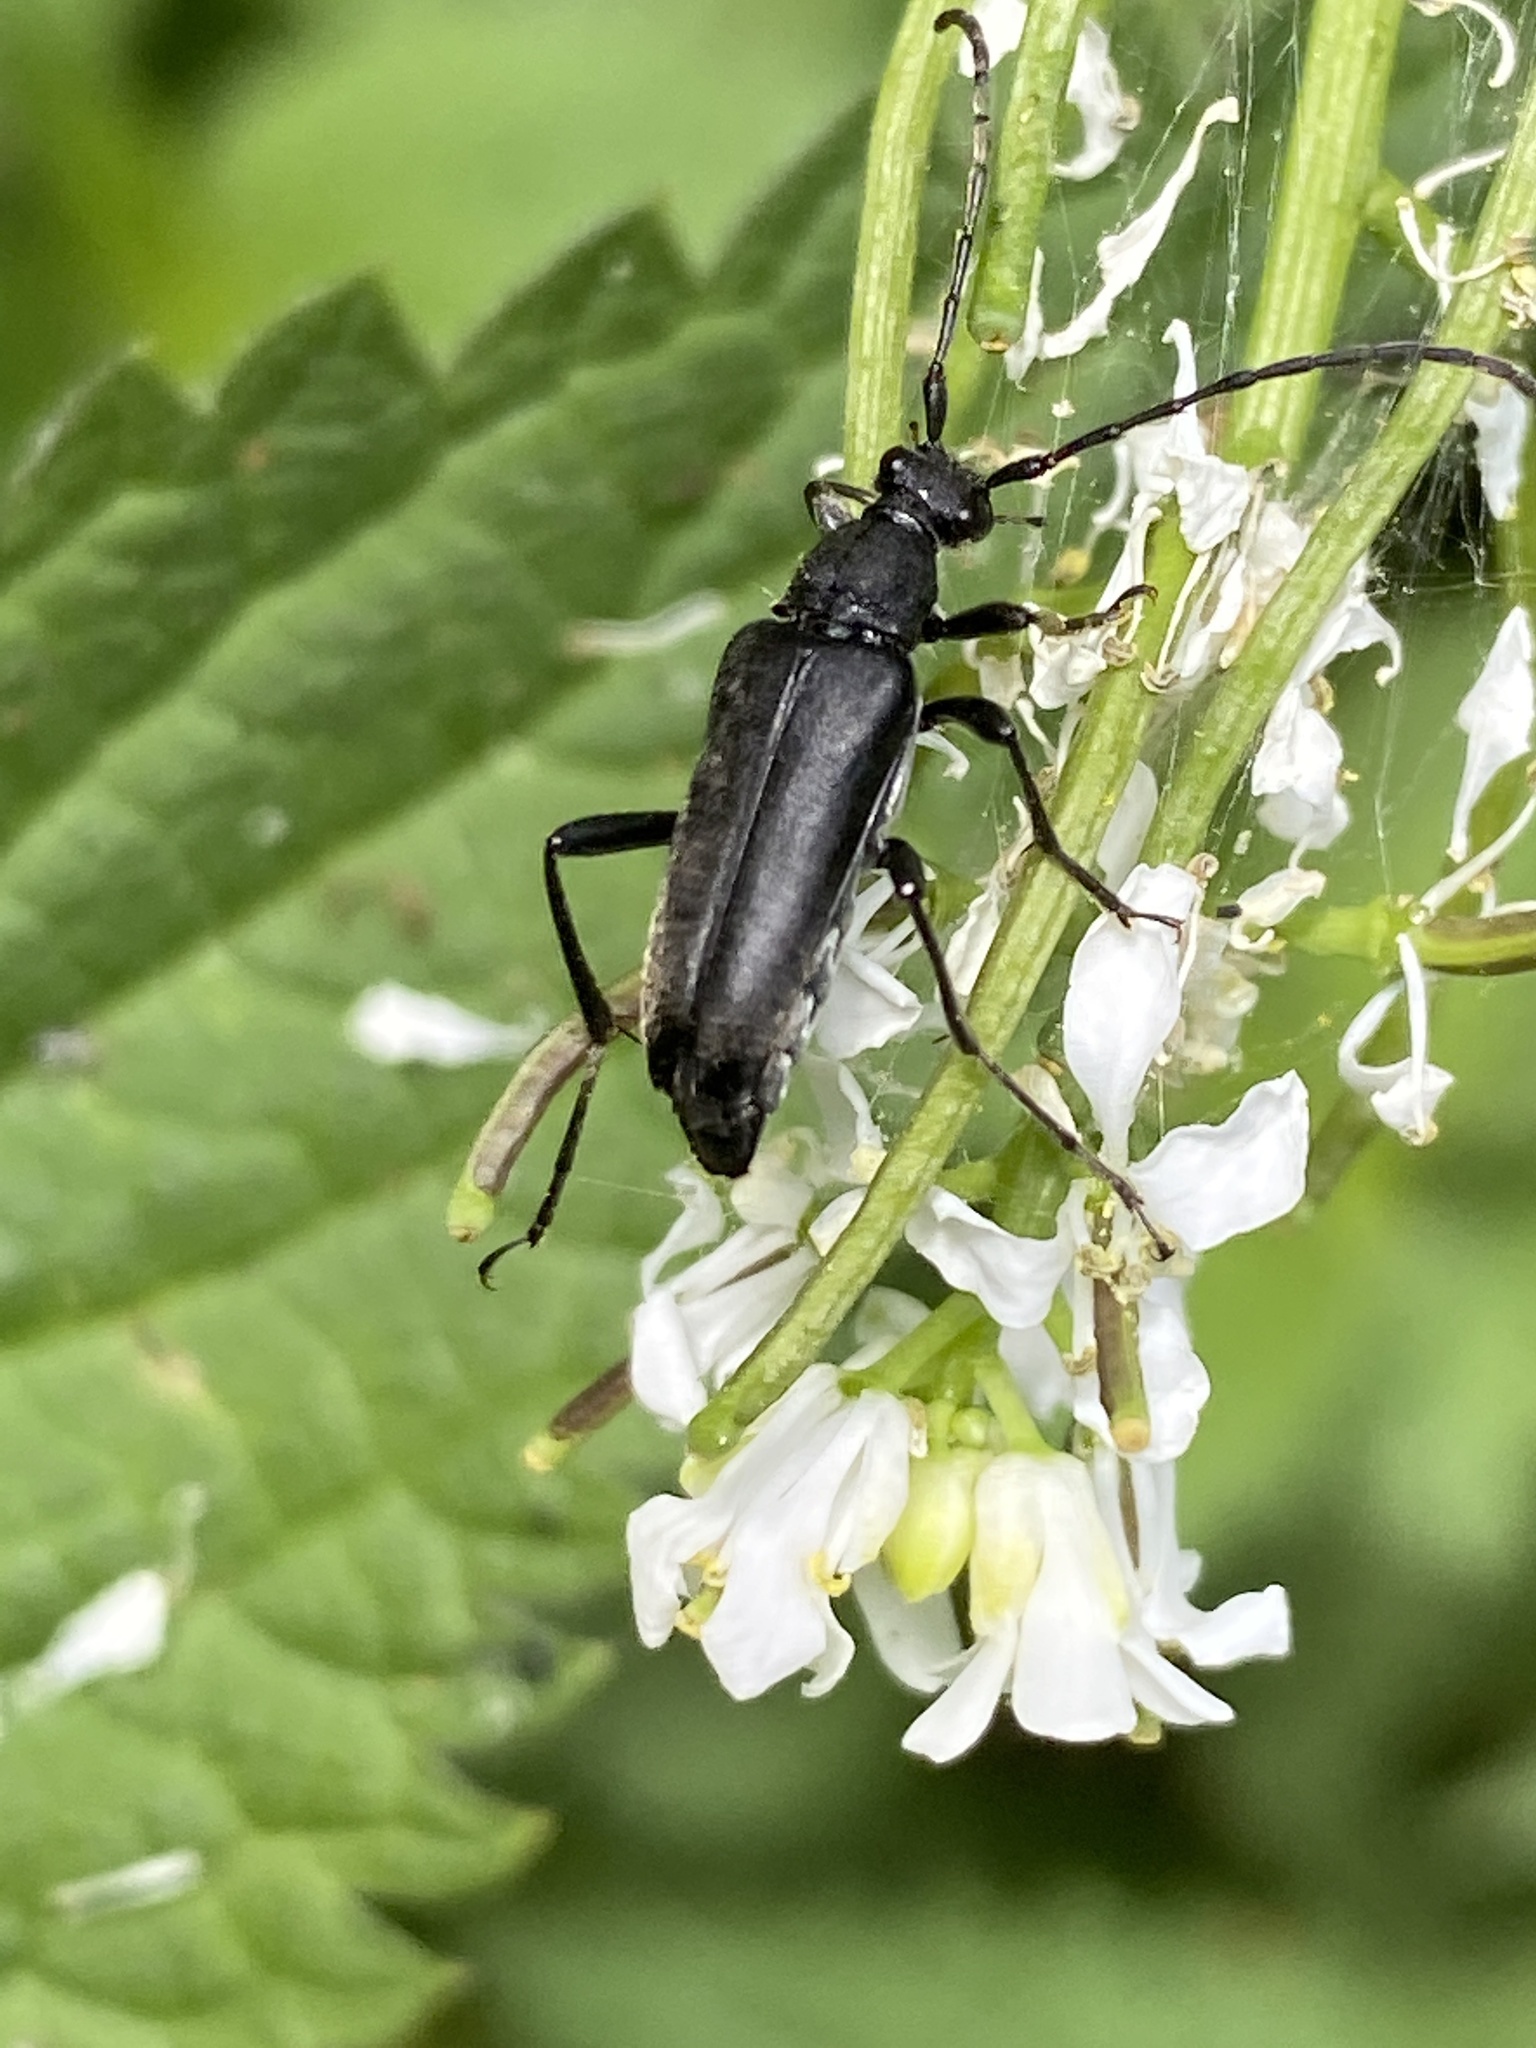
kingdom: Animalia
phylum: Arthropoda
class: Insecta
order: Coleoptera
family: Cerambycidae
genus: Leptura
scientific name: Leptura aethiops
